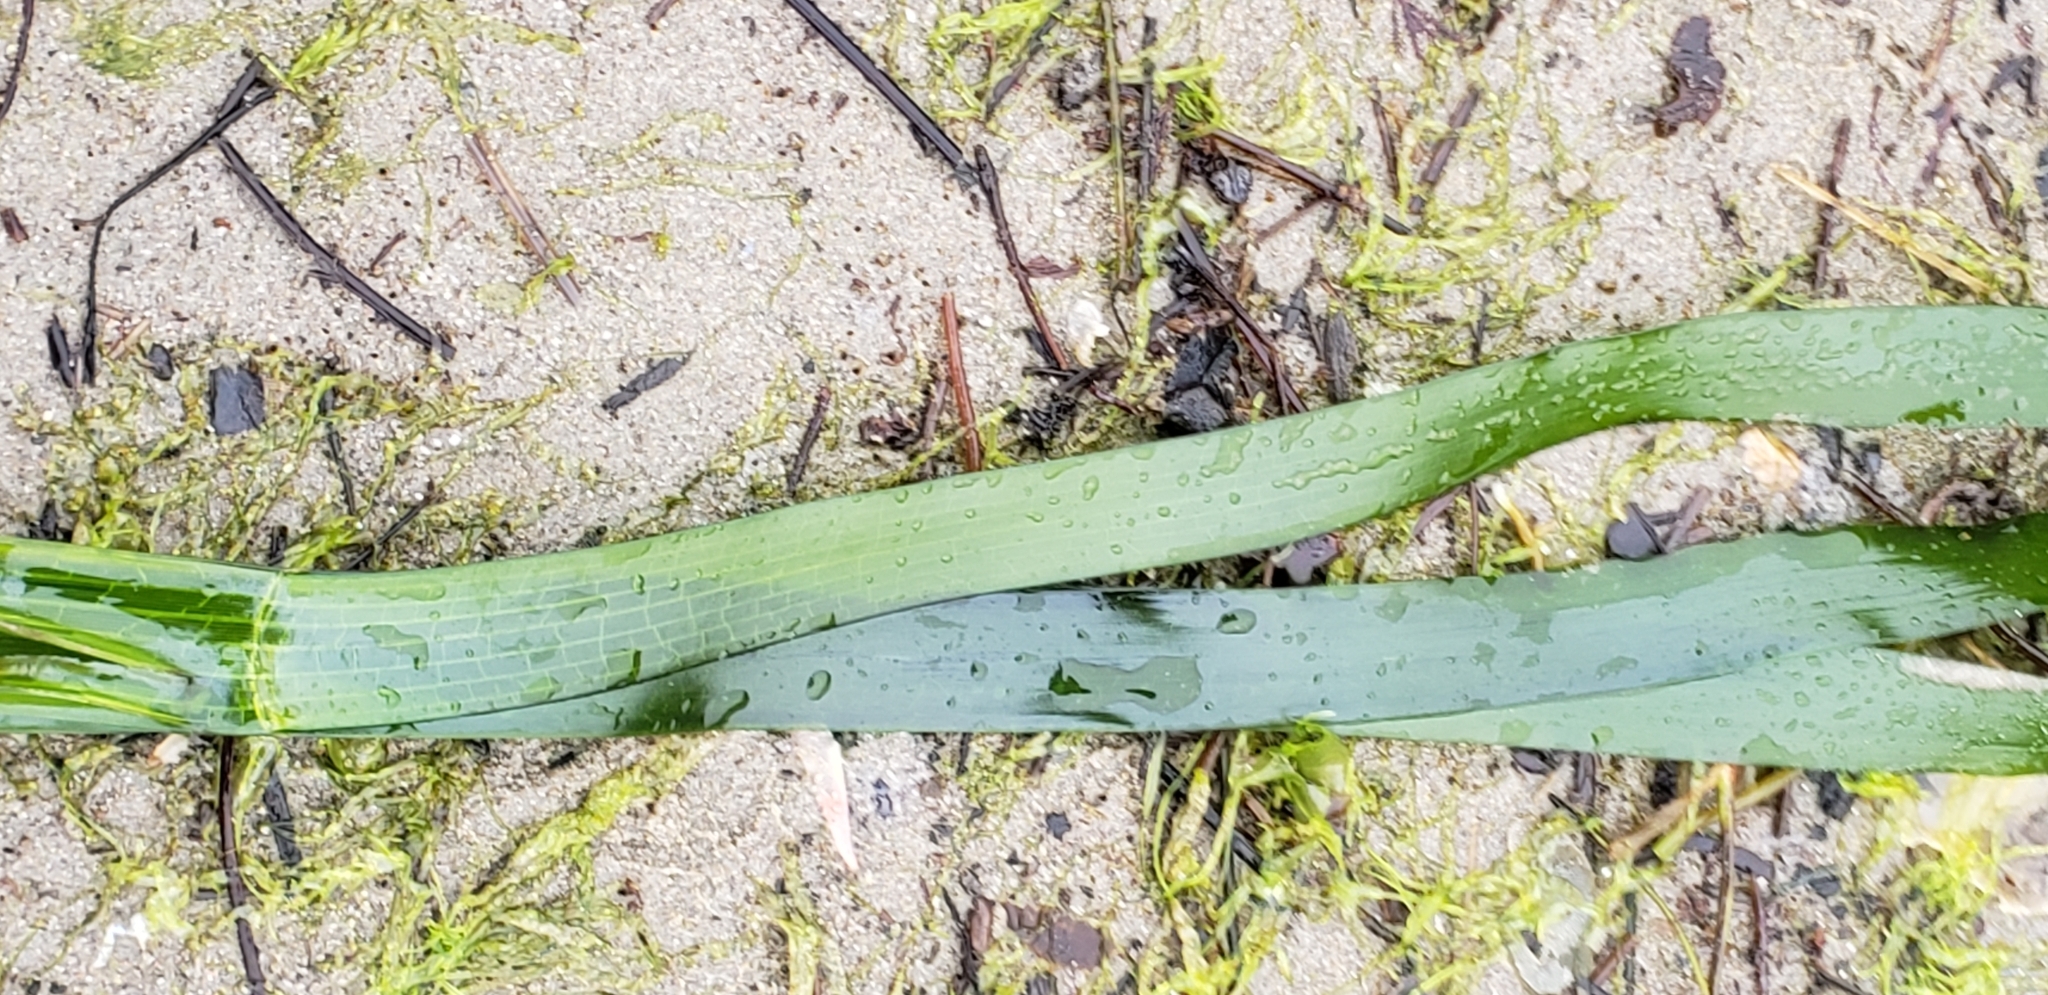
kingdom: Plantae
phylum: Tracheophyta
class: Liliopsida
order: Alismatales
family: Zosteraceae
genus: Zostera
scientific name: Zostera marina
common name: Eelgrass
